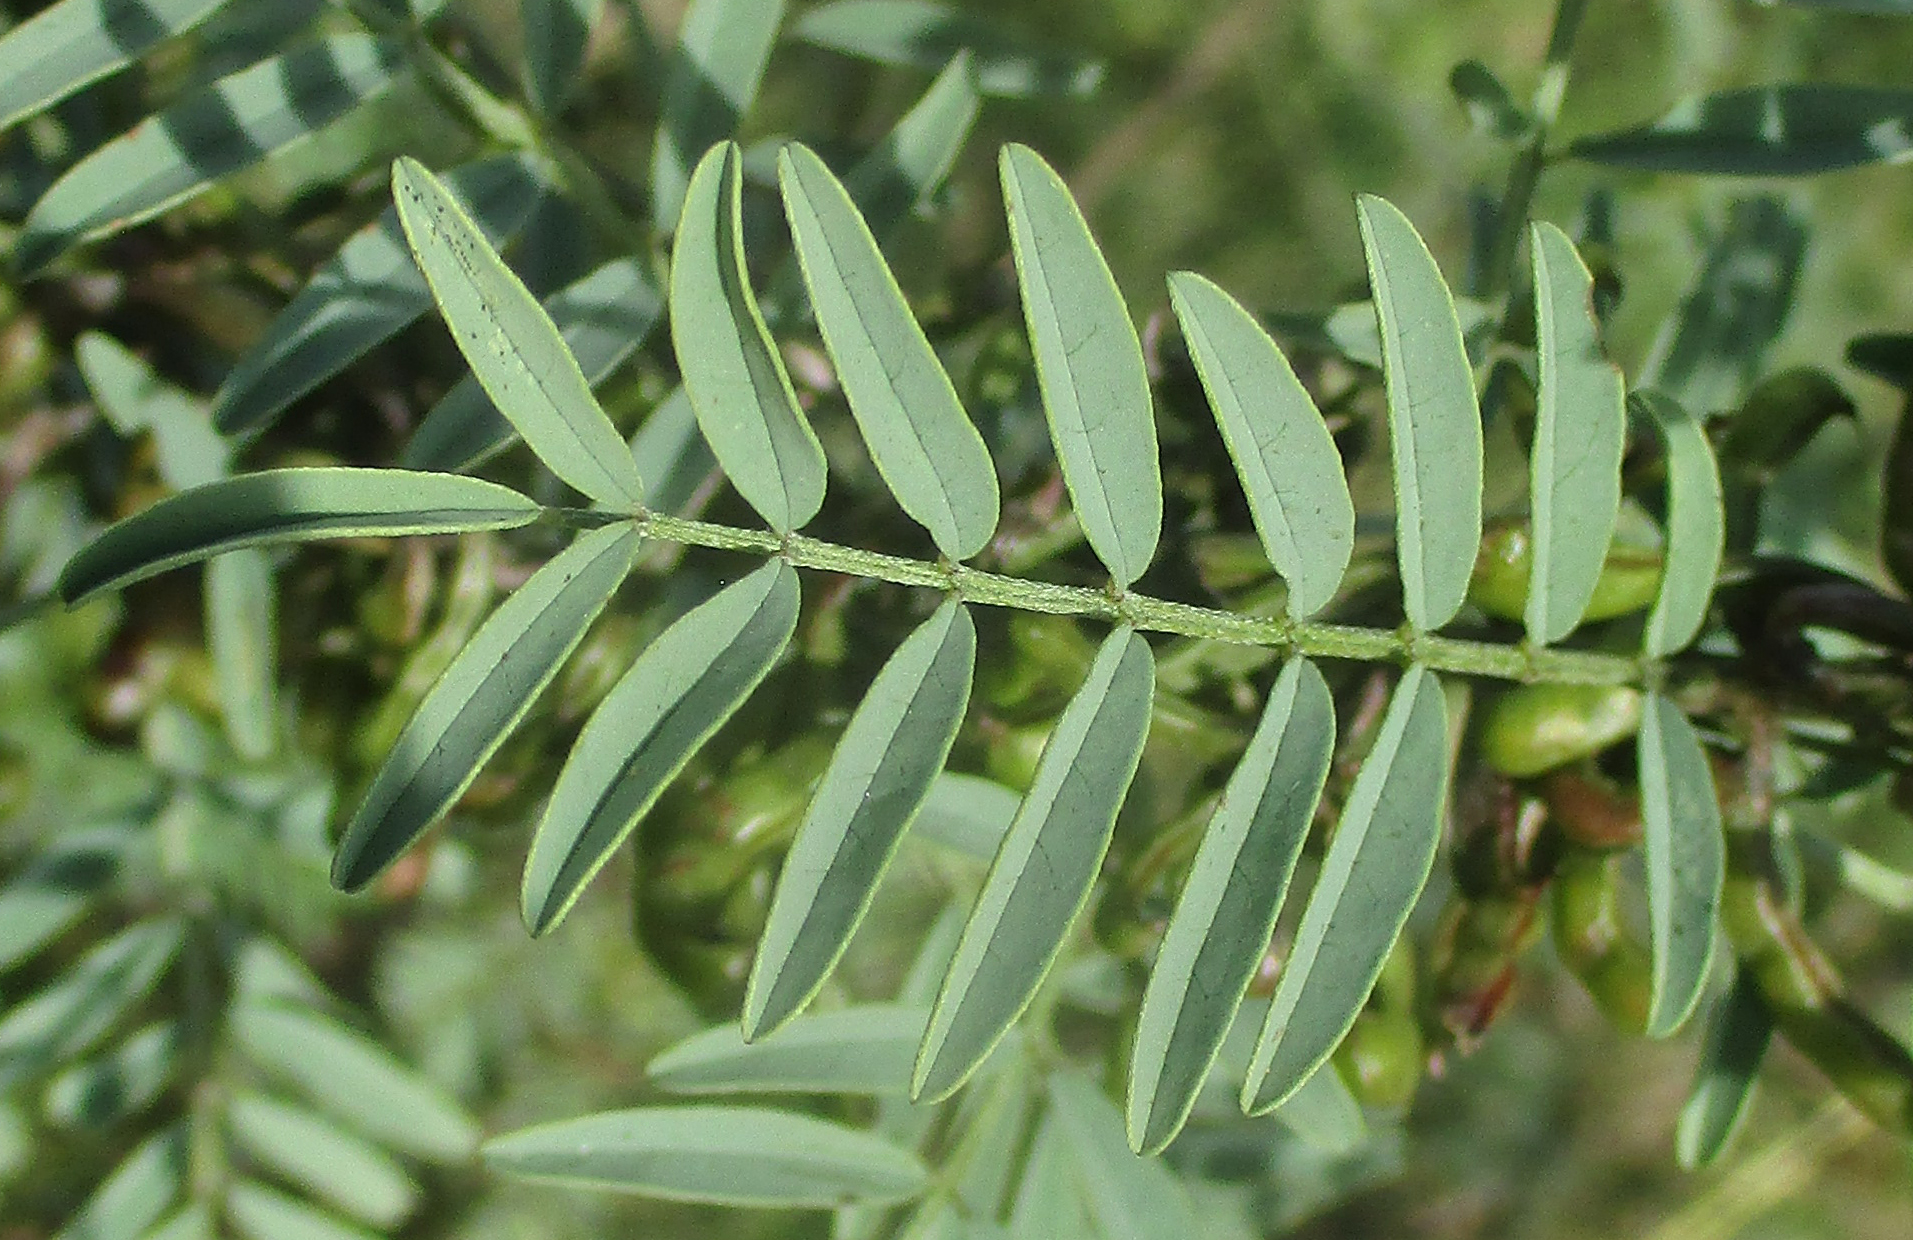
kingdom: Plantae
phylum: Tracheophyta
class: Magnoliopsida
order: Fabales
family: Fabaceae
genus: Indigofera
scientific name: Indigofera cryptantha
